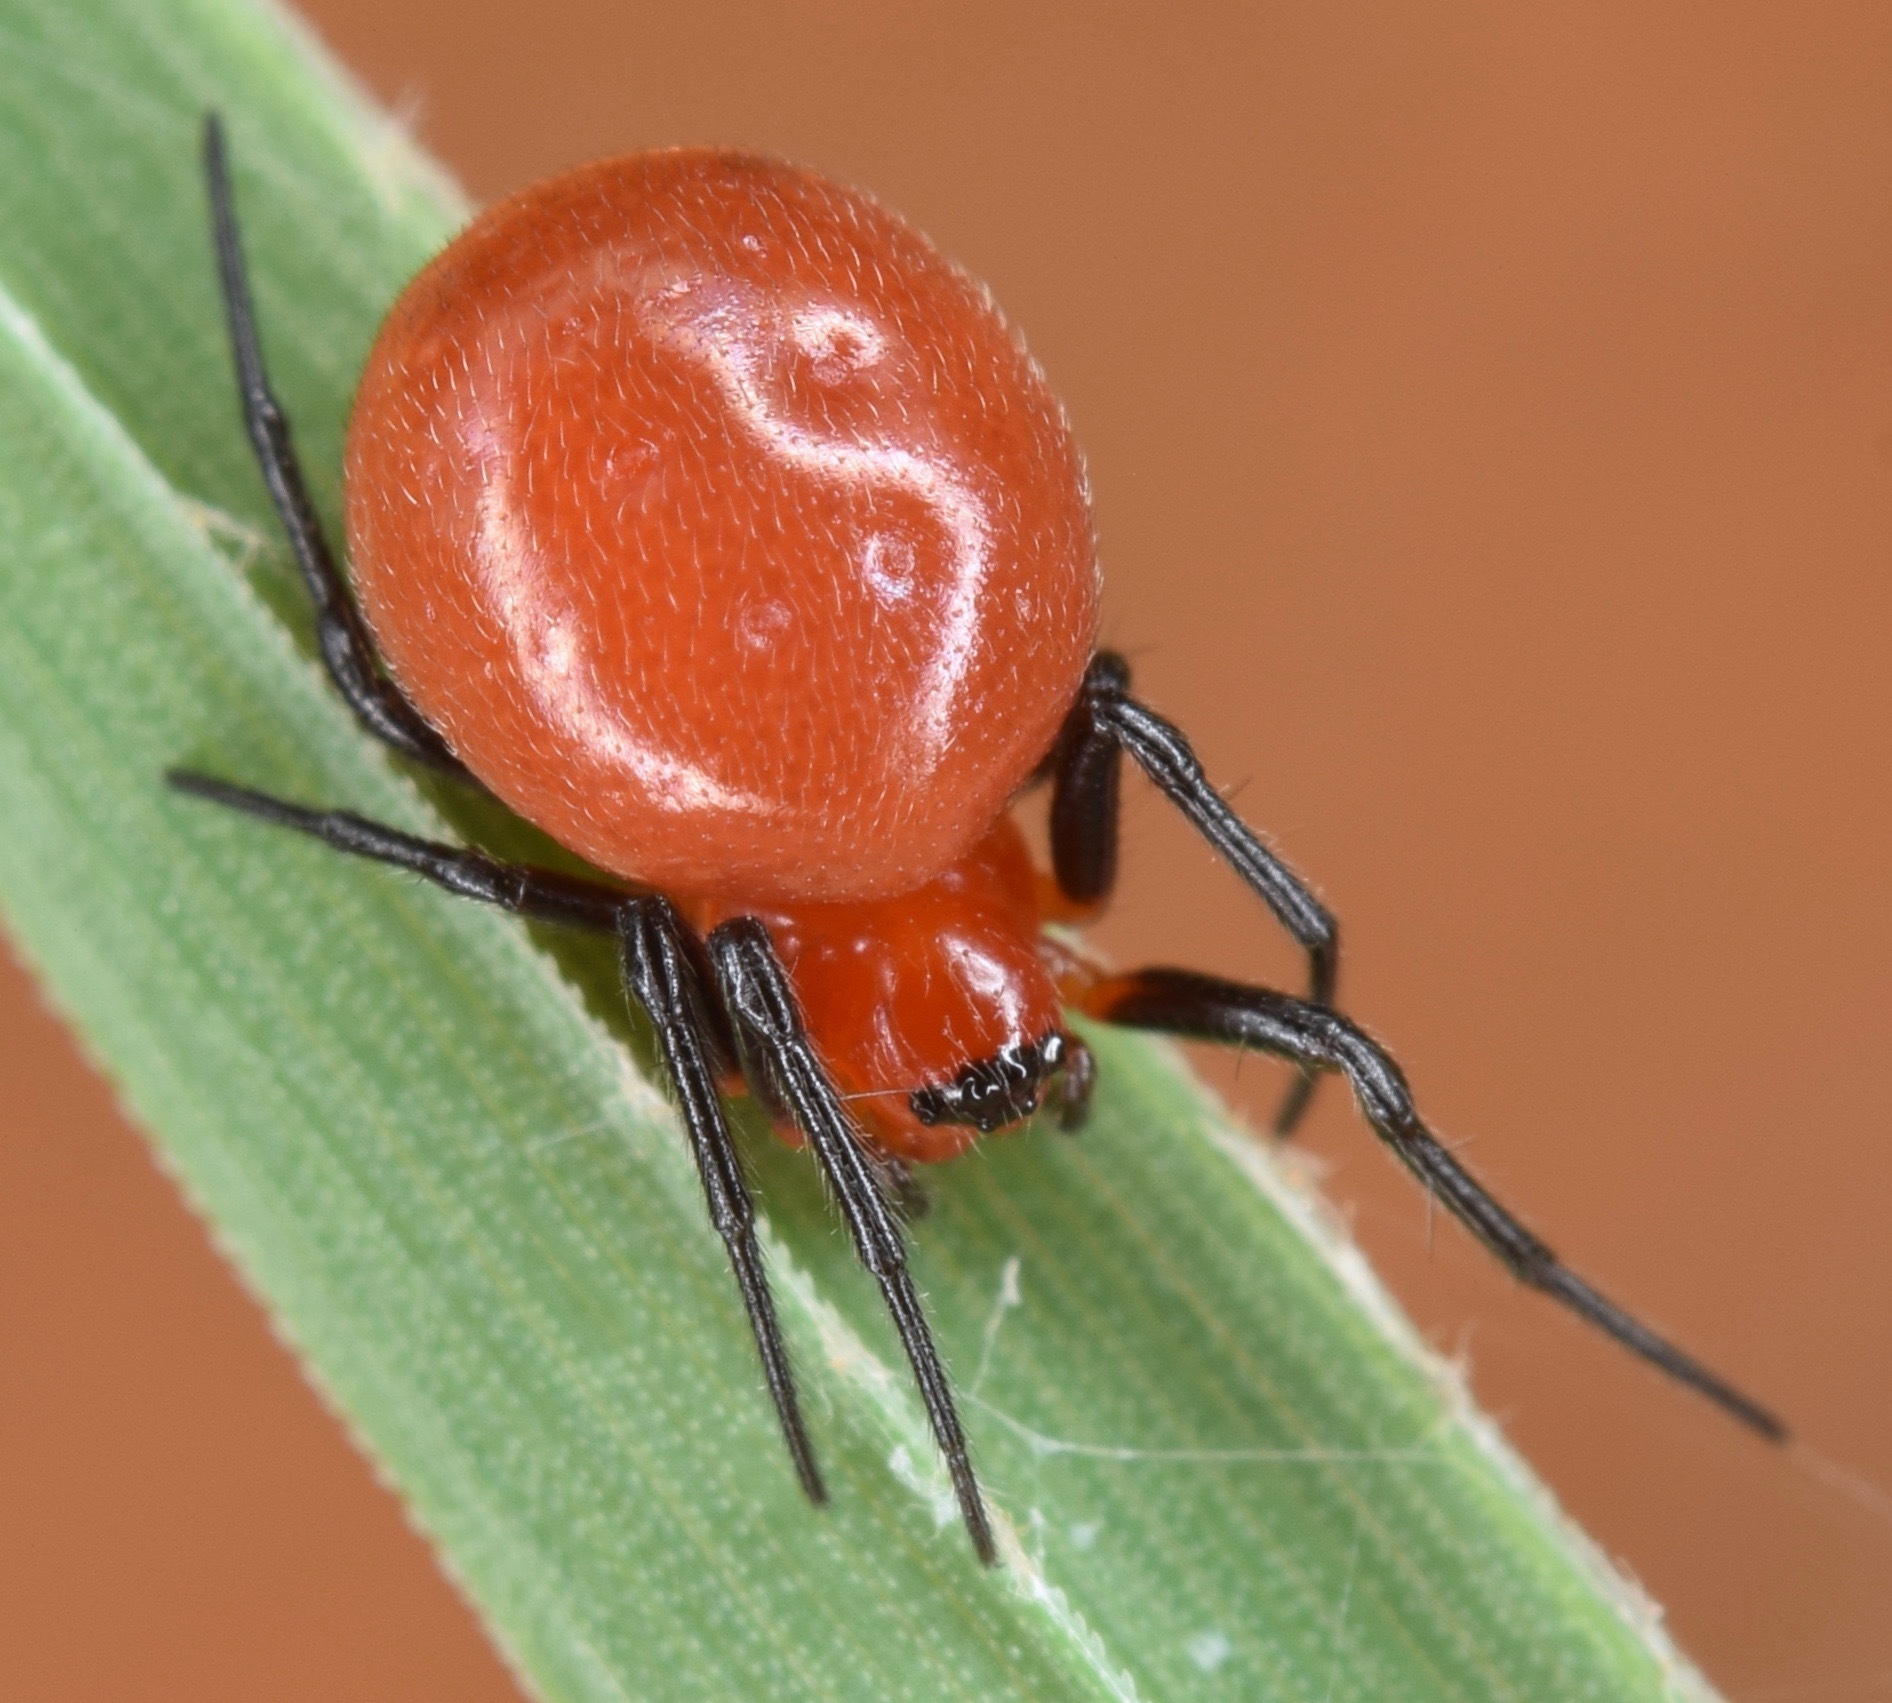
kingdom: Animalia
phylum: Arthropoda
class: Arachnida
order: Araneae
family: Araneidae
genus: Hypsosinga
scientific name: Hypsosinga rubens
